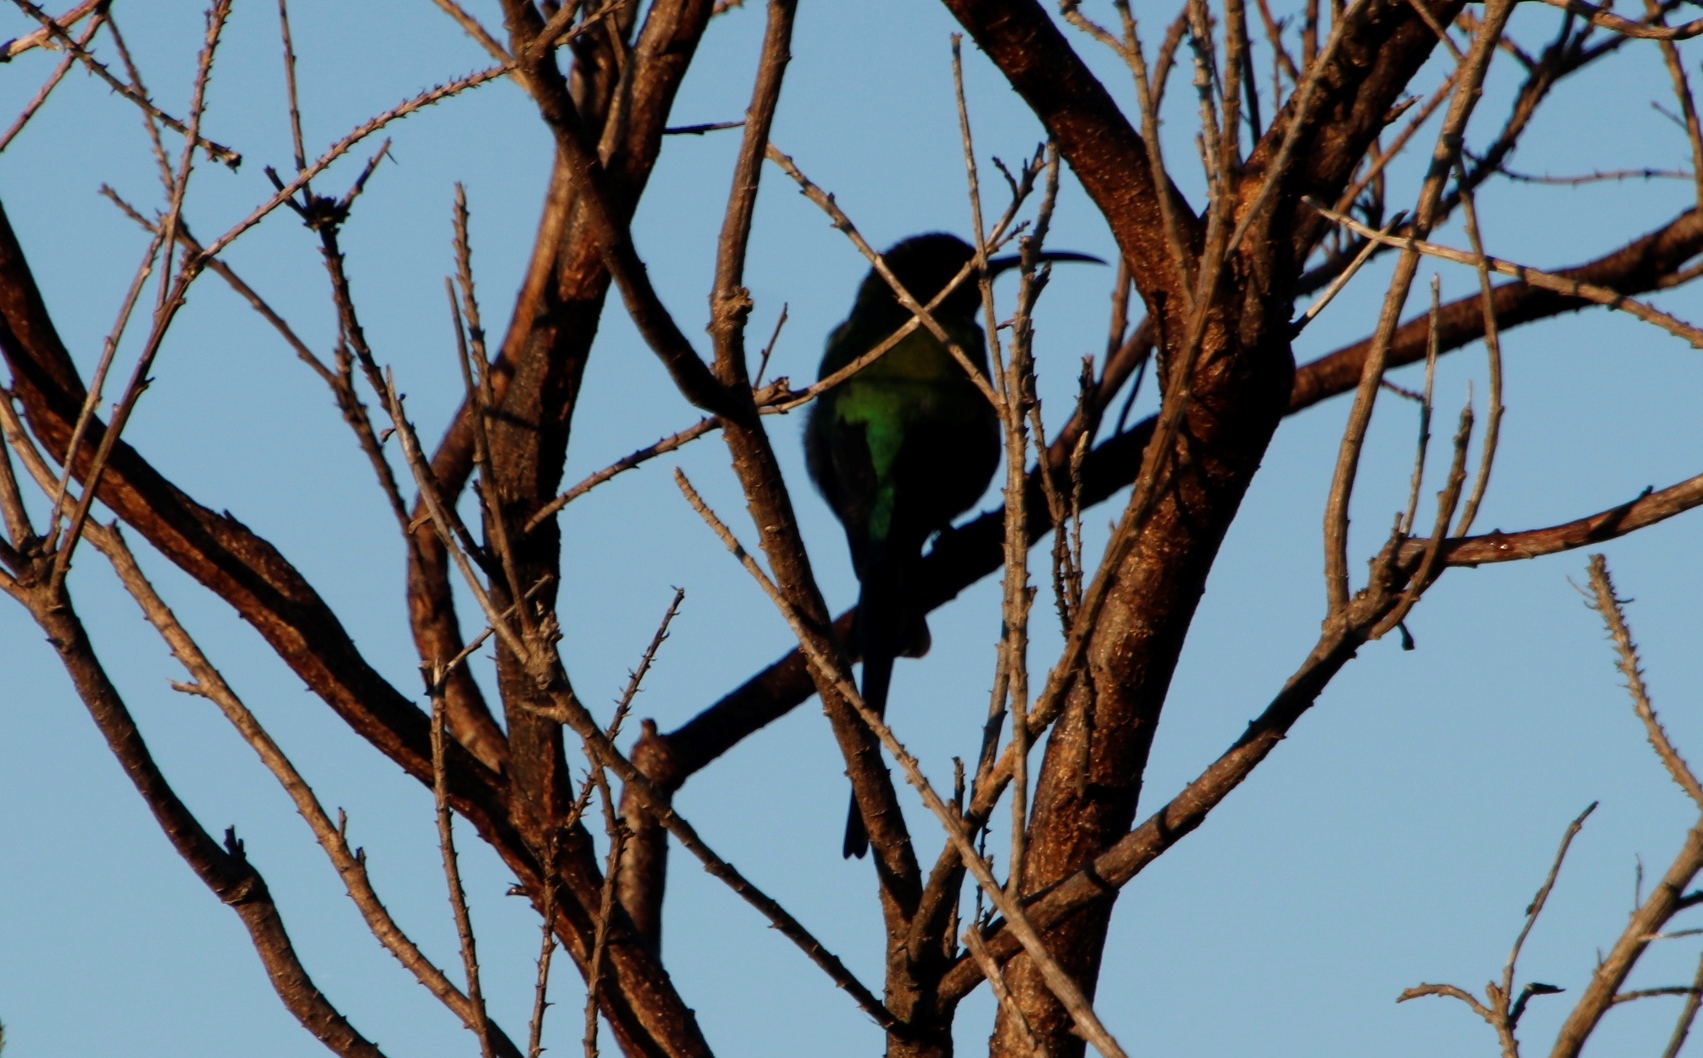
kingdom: Animalia
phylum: Chordata
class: Aves
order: Passeriformes
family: Nectariniidae
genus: Nectarinia
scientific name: Nectarinia famosa
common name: Malachite sunbird
